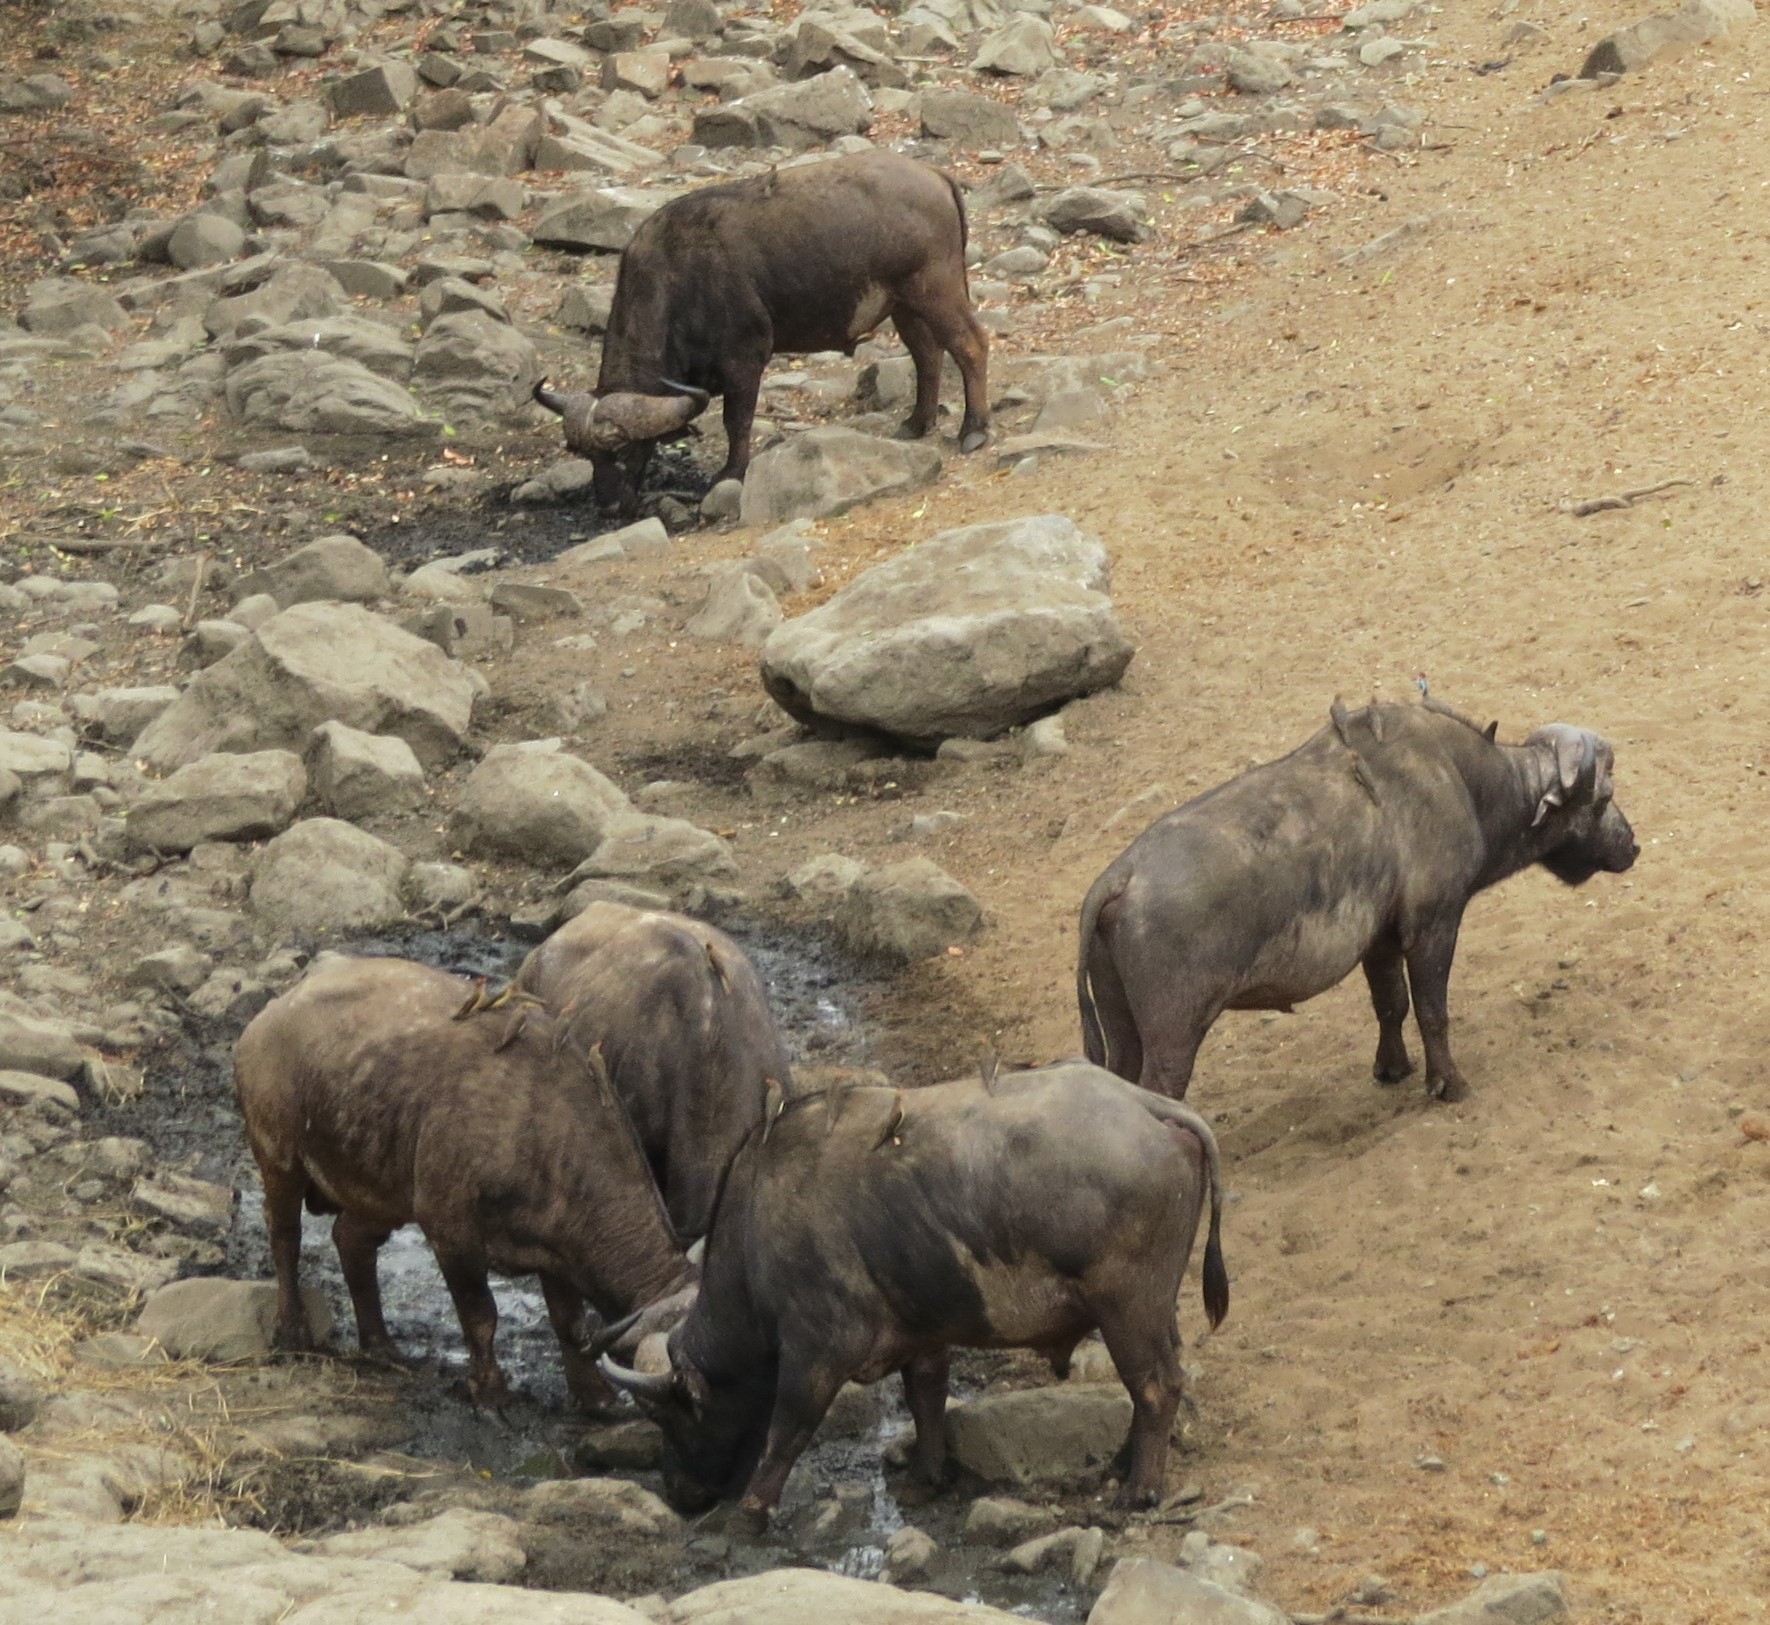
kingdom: Animalia
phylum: Chordata
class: Mammalia
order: Artiodactyla
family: Bovidae
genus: Syncerus
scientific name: Syncerus caffer
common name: African buffalo
